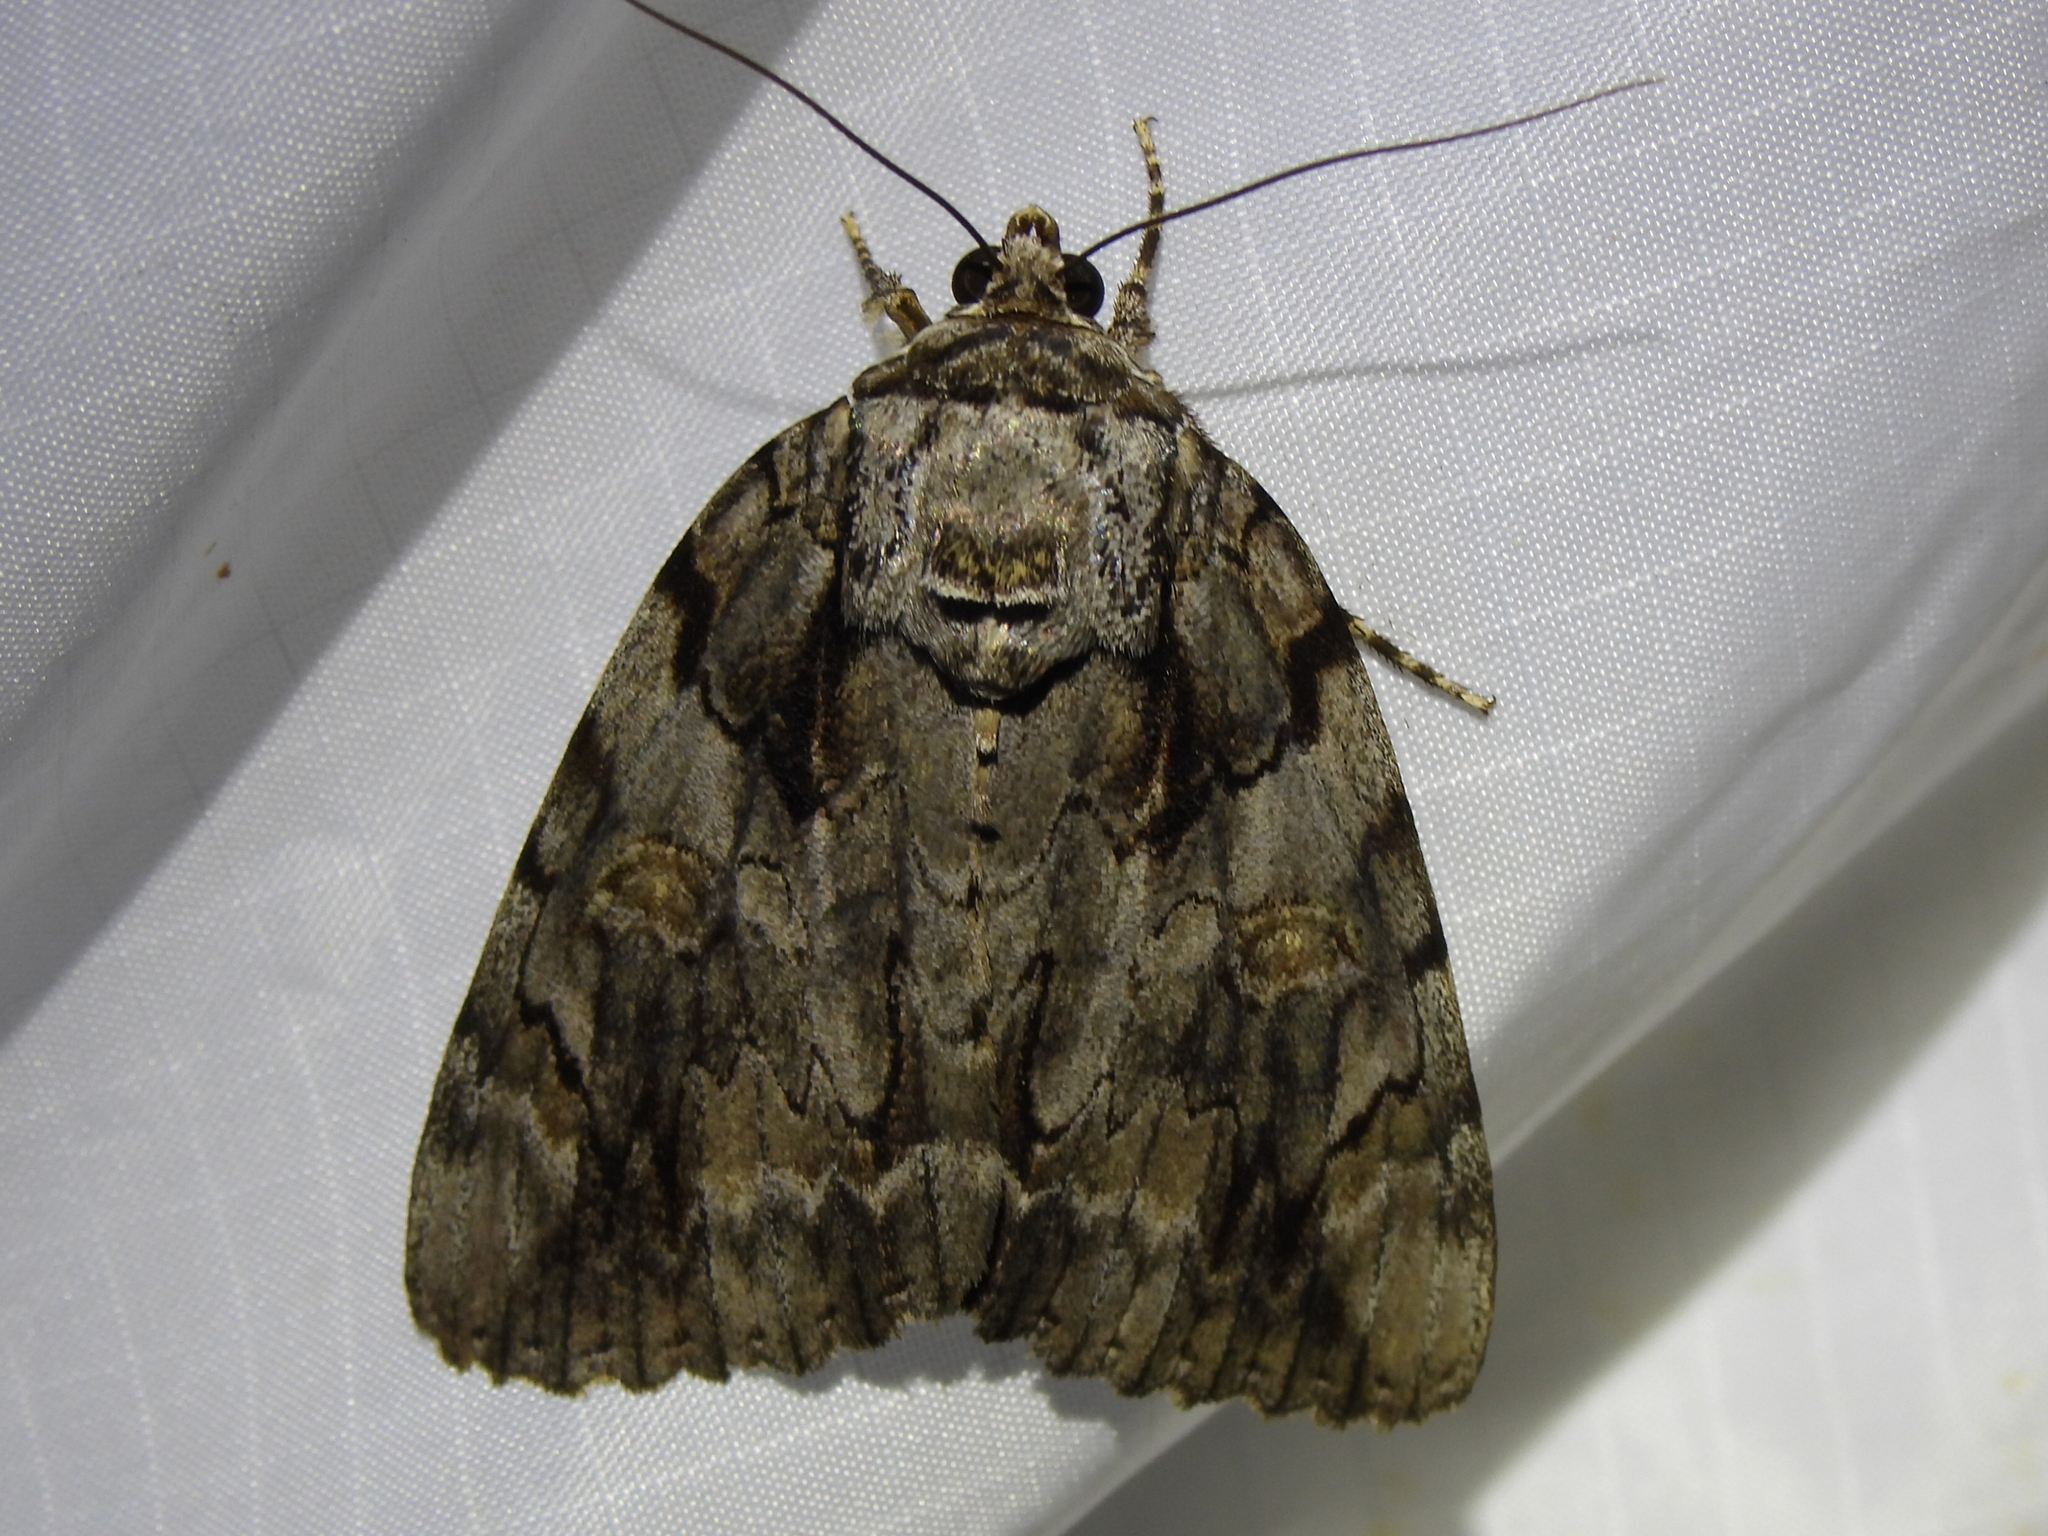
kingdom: Animalia
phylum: Arthropoda
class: Insecta
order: Lepidoptera
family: Erebidae
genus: Catocala
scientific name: Catocala neogama
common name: Bride underwing
